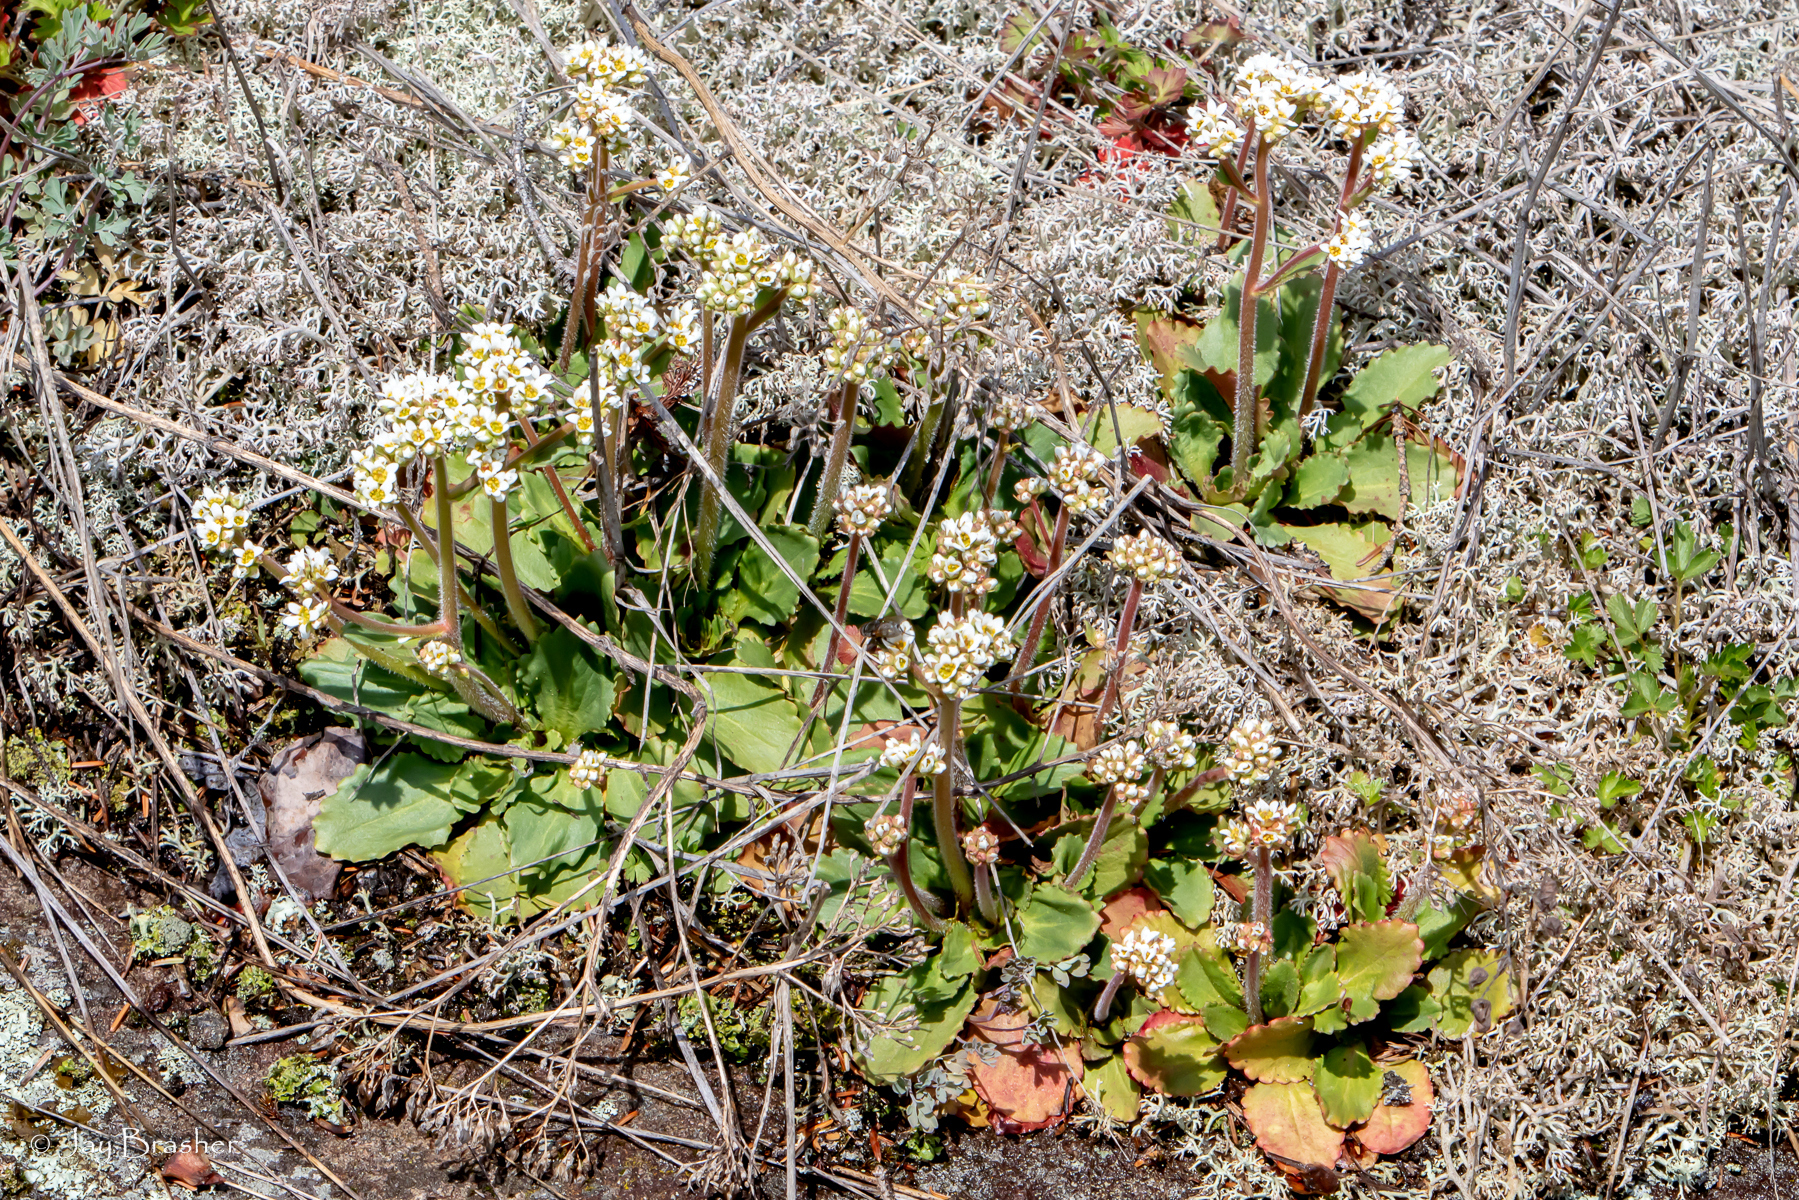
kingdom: Plantae
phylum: Tracheophyta
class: Magnoliopsida
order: Saxifragales
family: Saxifragaceae
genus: Micranthes
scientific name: Micranthes virginiensis
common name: Early saxifrage
